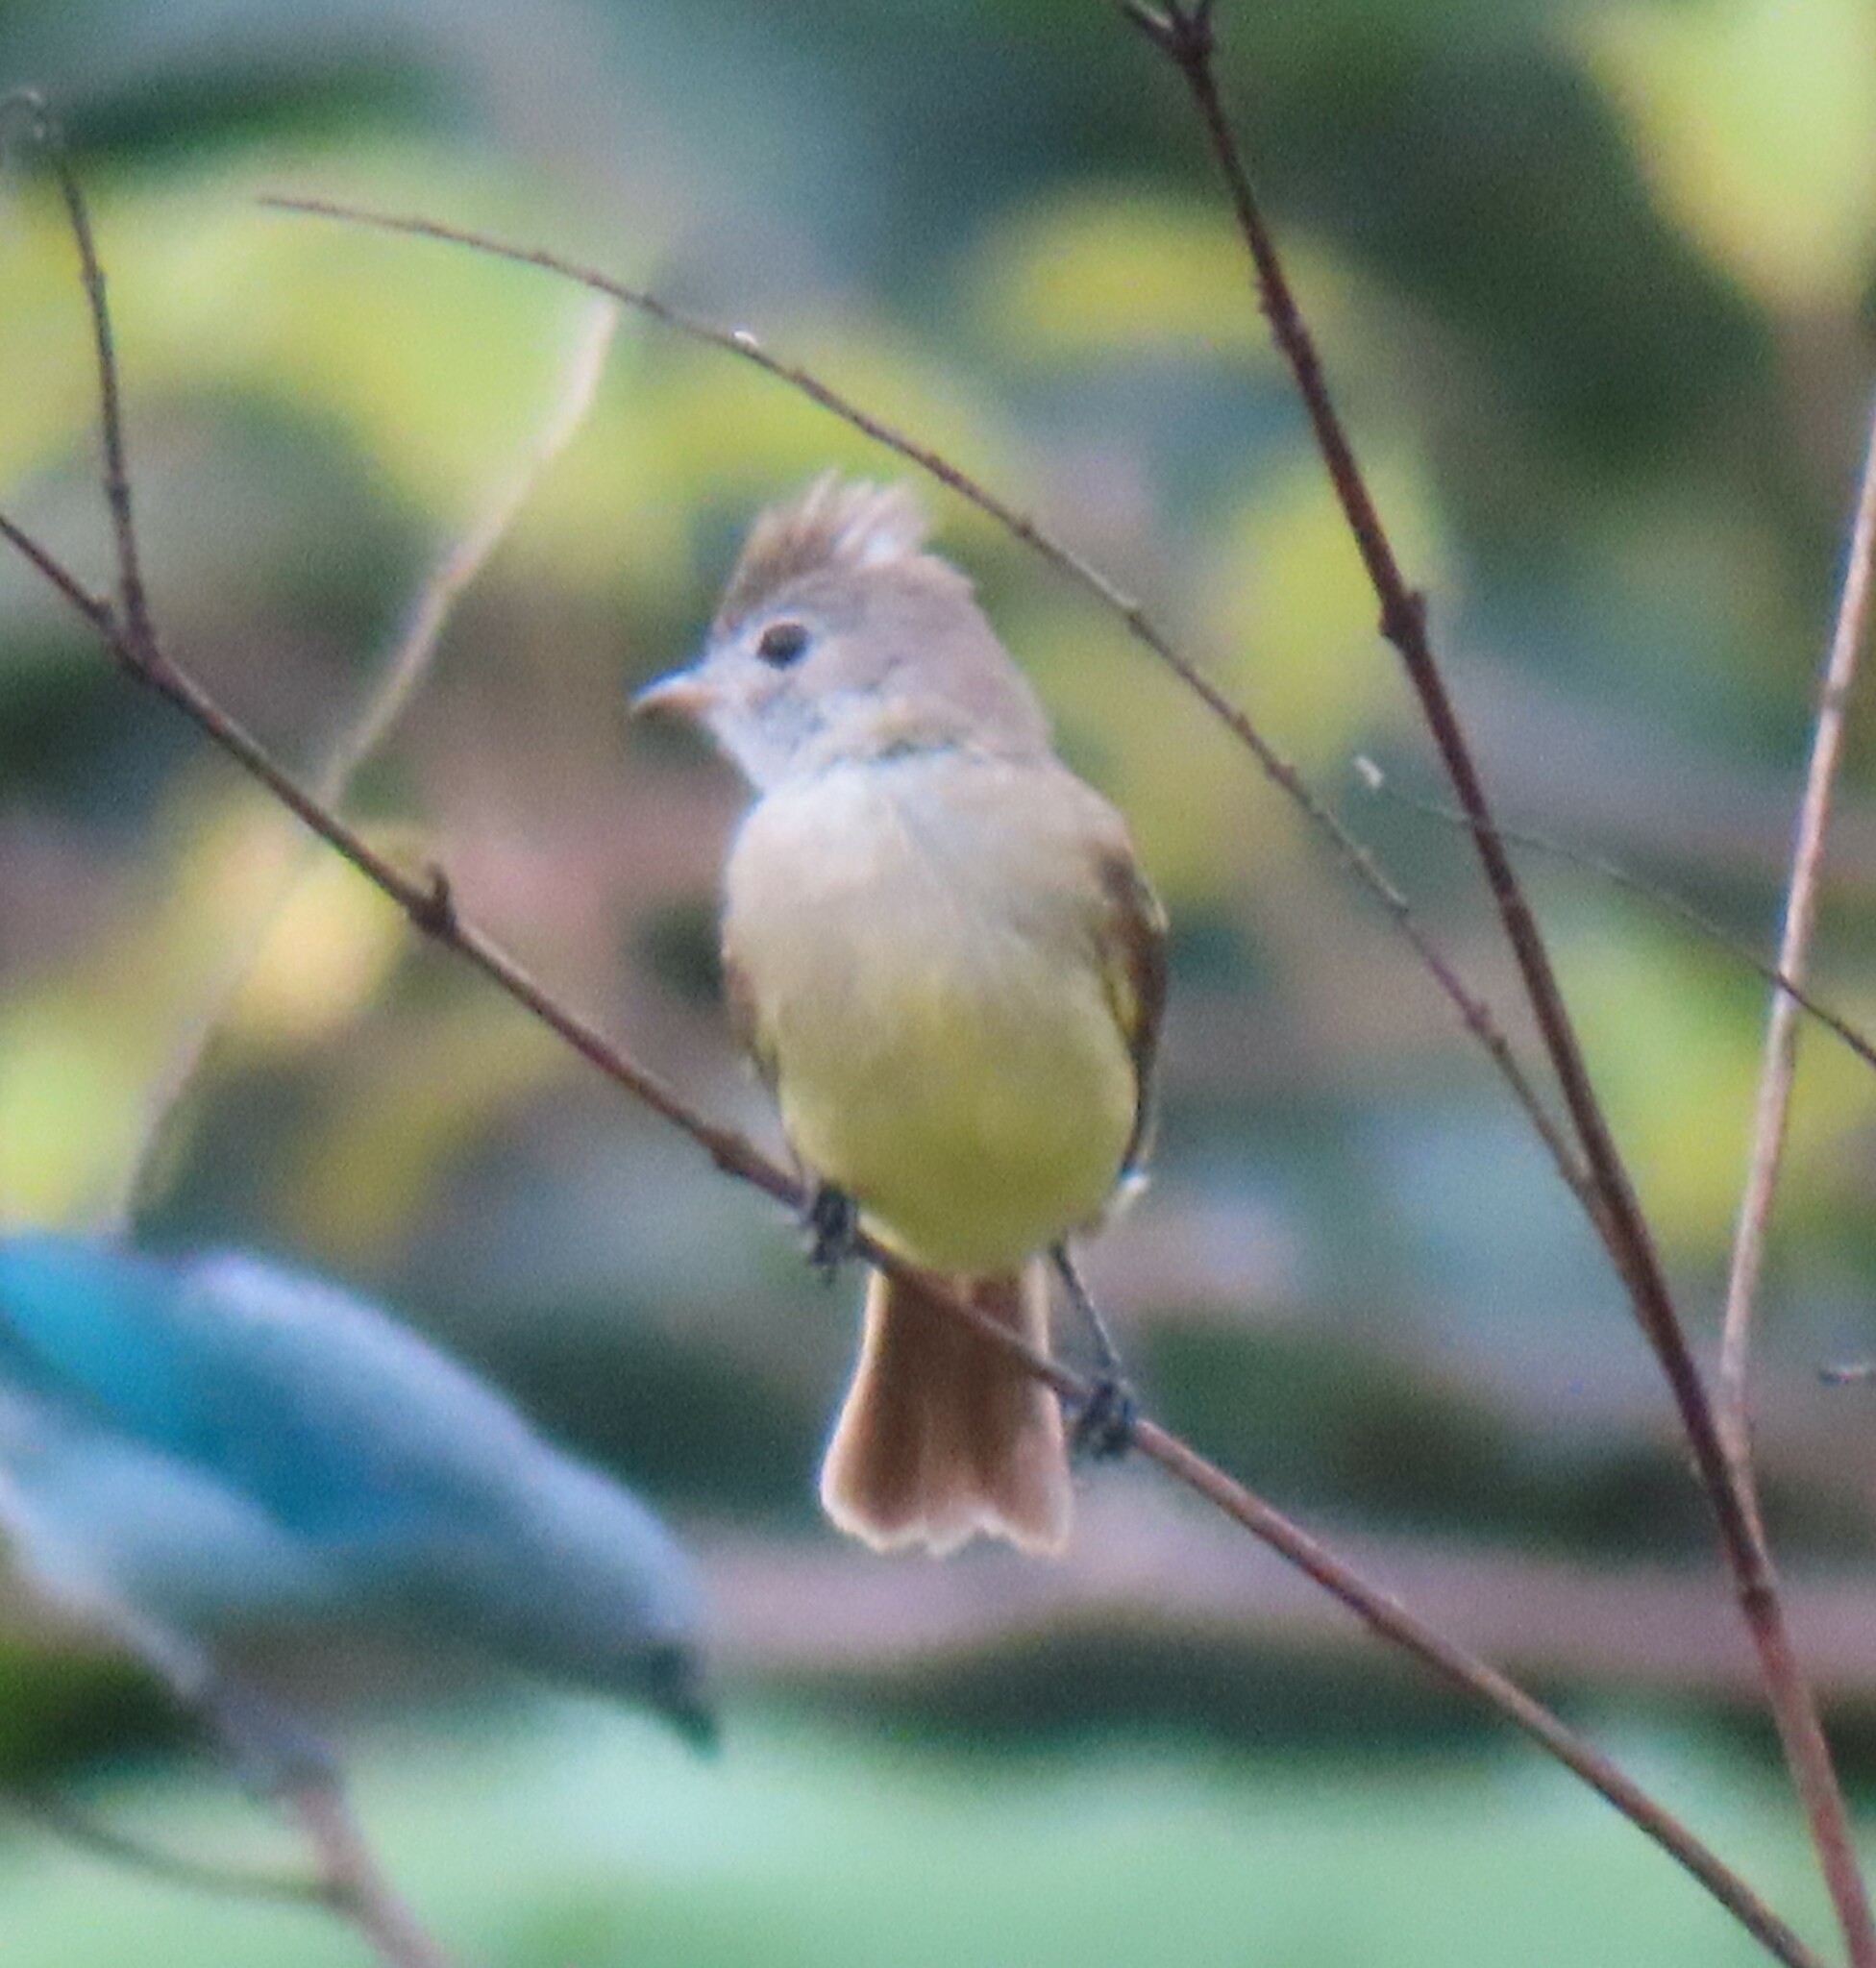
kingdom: Animalia
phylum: Chordata
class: Aves
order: Passeriformes
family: Tyrannidae
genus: Elaenia
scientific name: Elaenia flavogaster
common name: Yellow-bellied elaenia
